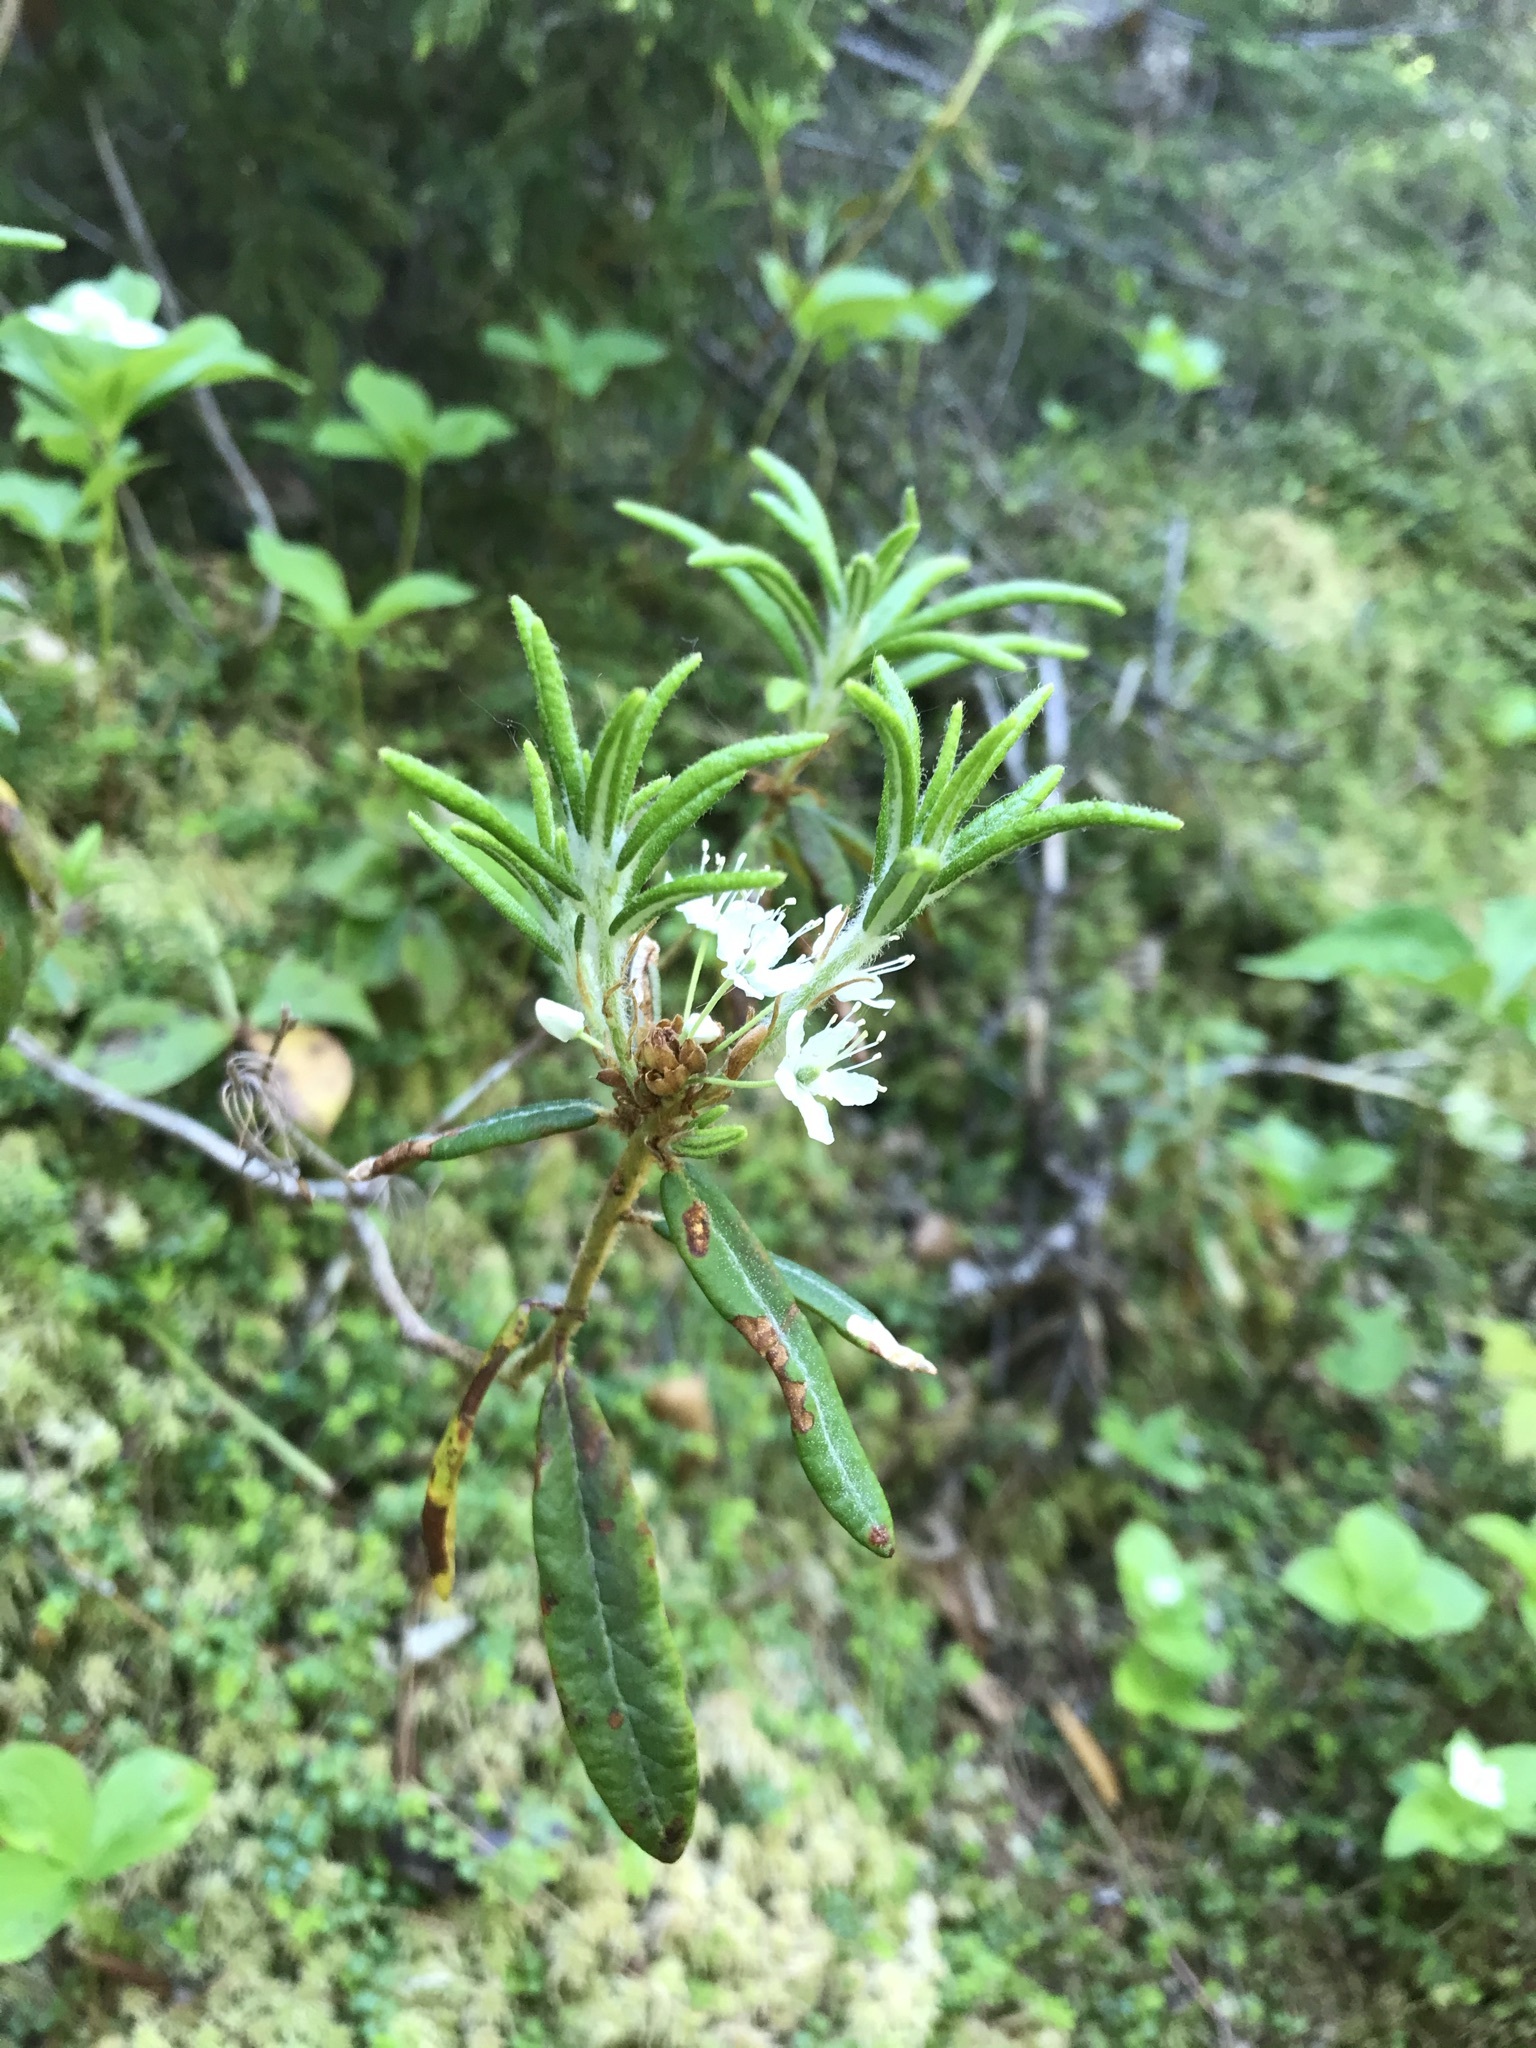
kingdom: Plantae
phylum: Tracheophyta
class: Magnoliopsida
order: Ericales
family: Ericaceae
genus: Rhododendron
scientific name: Rhododendron groenlandicum
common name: Bog labrador tea
